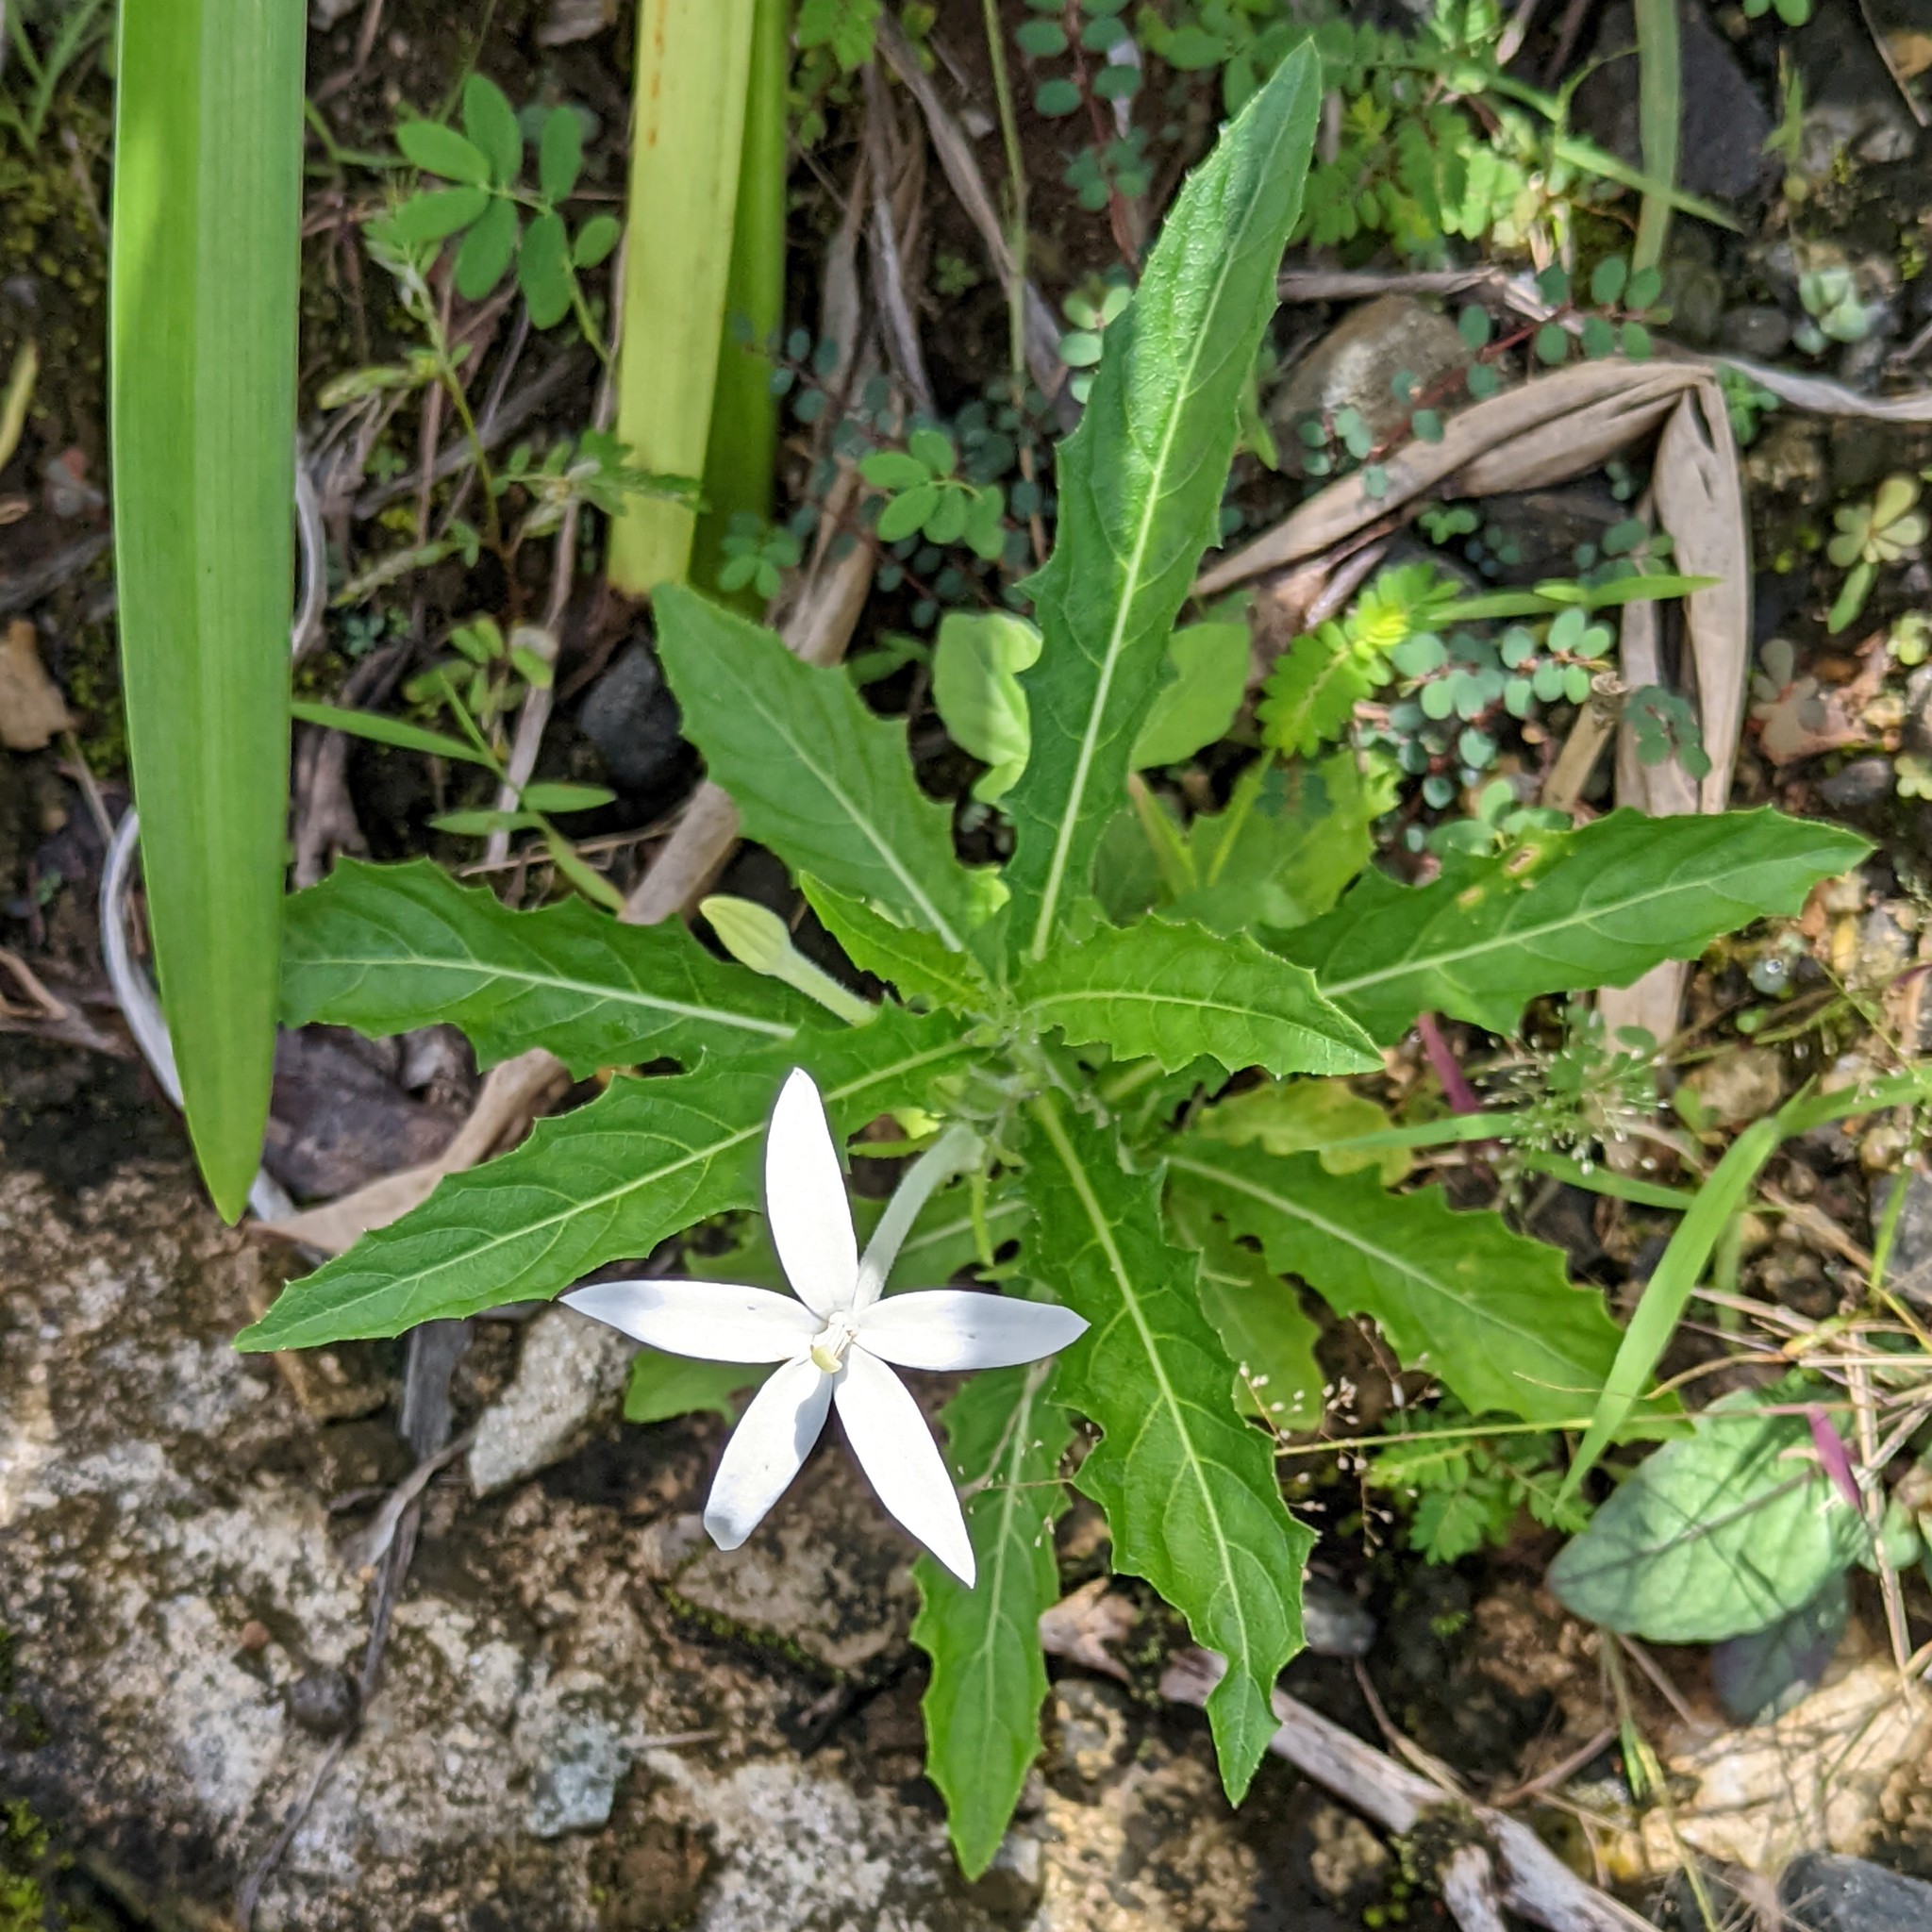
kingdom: Plantae
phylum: Tracheophyta
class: Magnoliopsida
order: Asterales
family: Campanulaceae
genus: Hippobroma
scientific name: Hippobroma longiflora
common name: Madamfate
